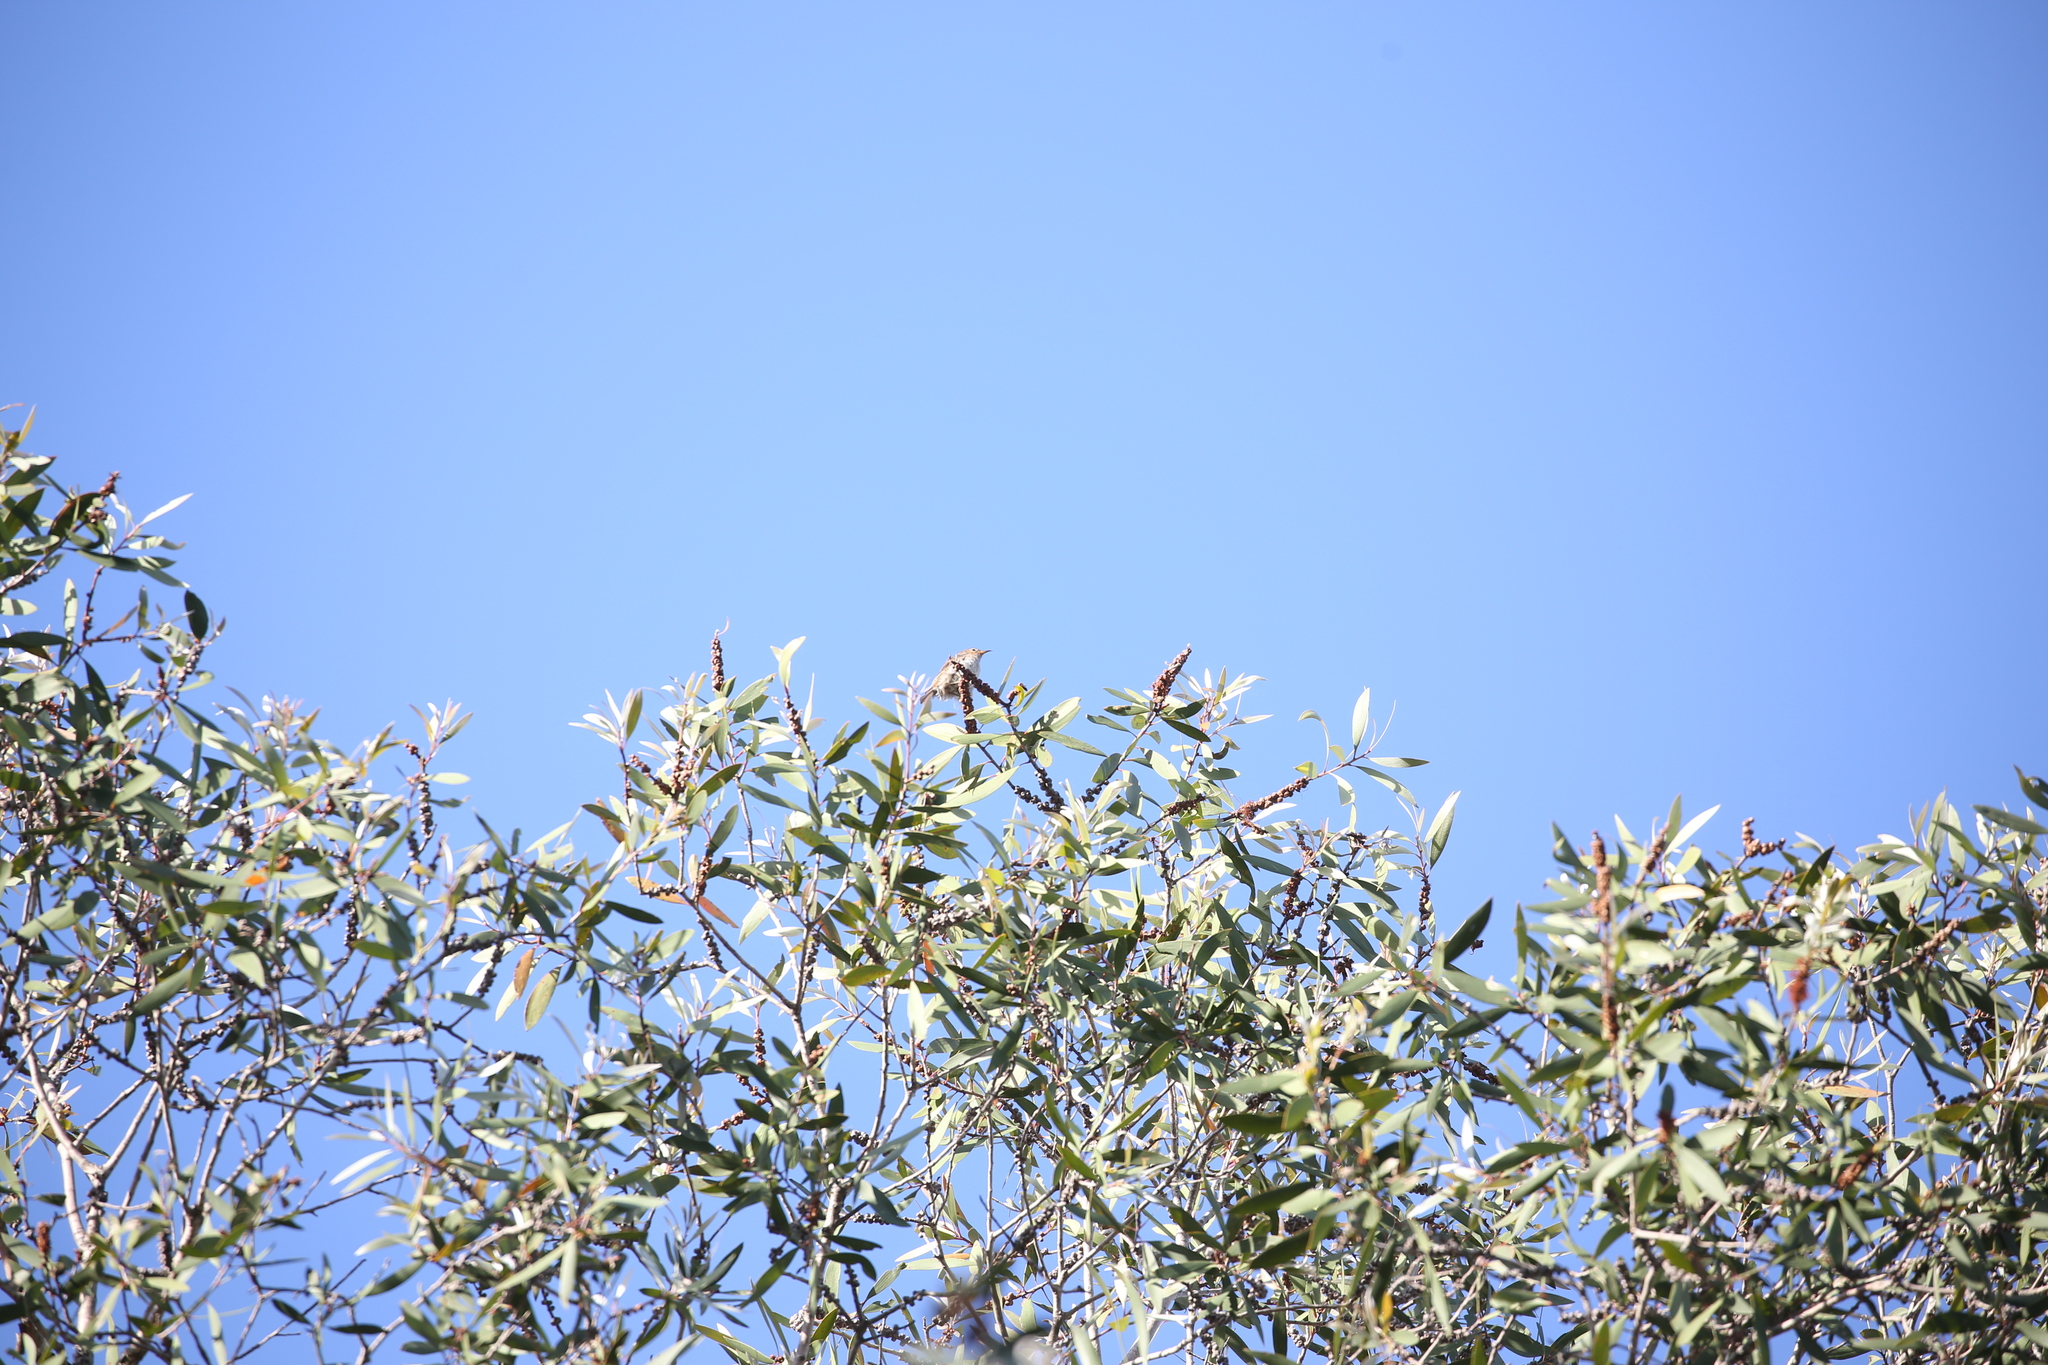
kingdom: Animalia
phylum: Chordata
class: Aves
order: Passeriformes
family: Meliphagidae
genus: Myzomela
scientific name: Myzomela sanguinolenta
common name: Scarlet myzomela
